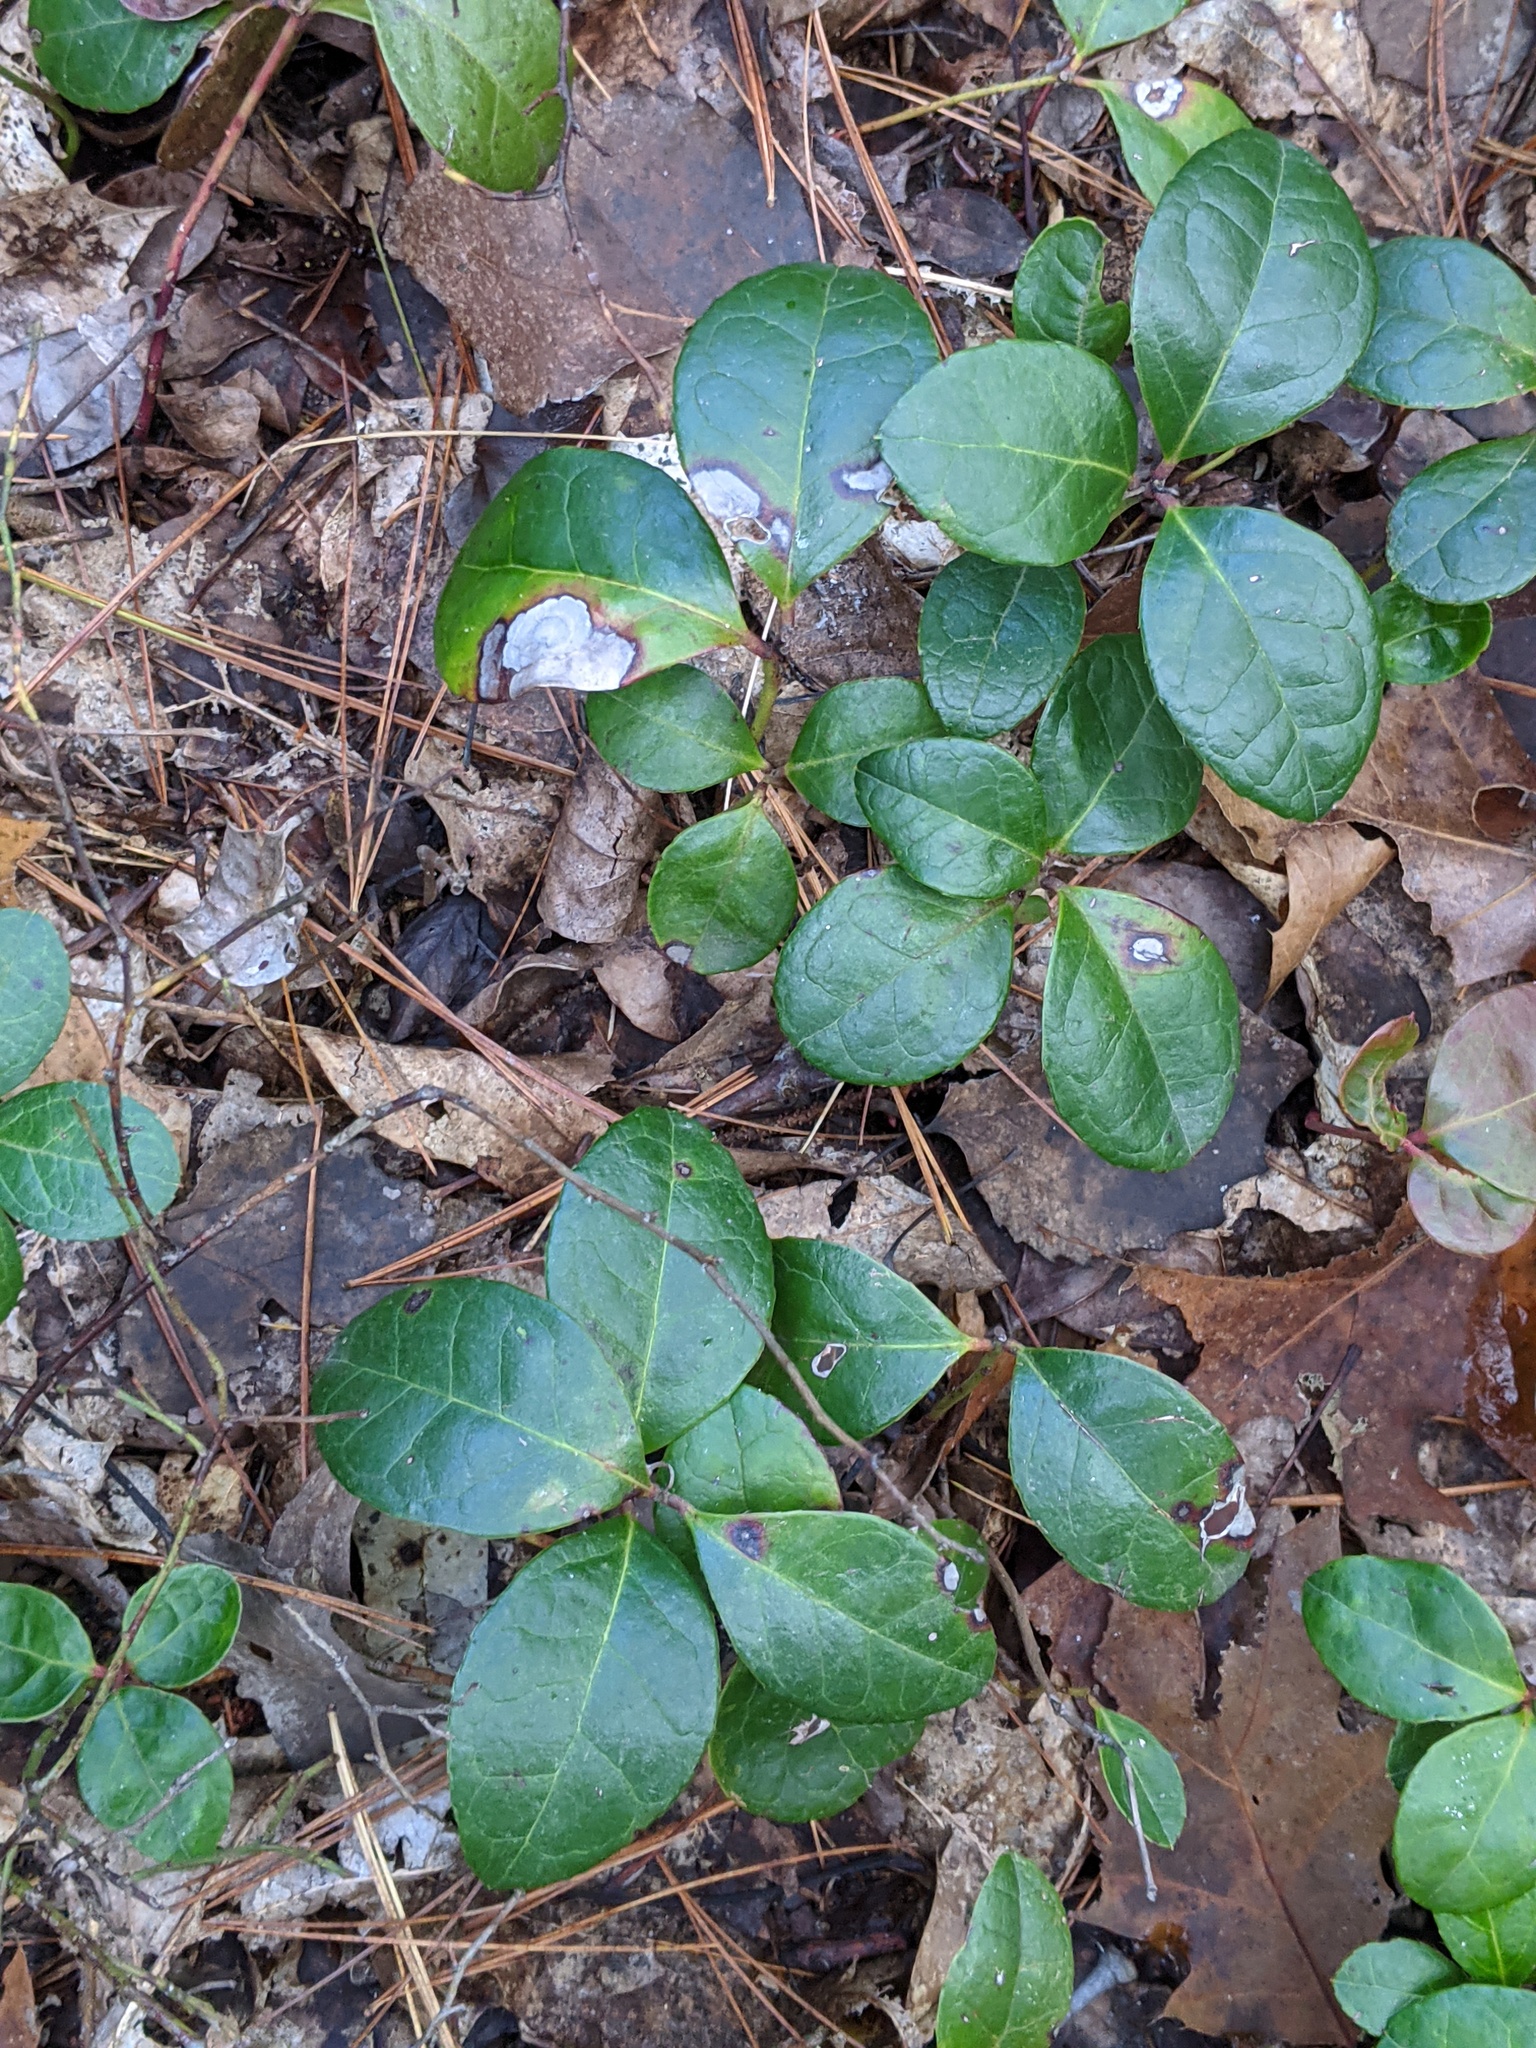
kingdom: Plantae
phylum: Tracheophyta
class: Magnoliopsida
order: Ericales
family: Ericaceae
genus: Gaultheria
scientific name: Gaultheria procumbens
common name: Checkerberry
